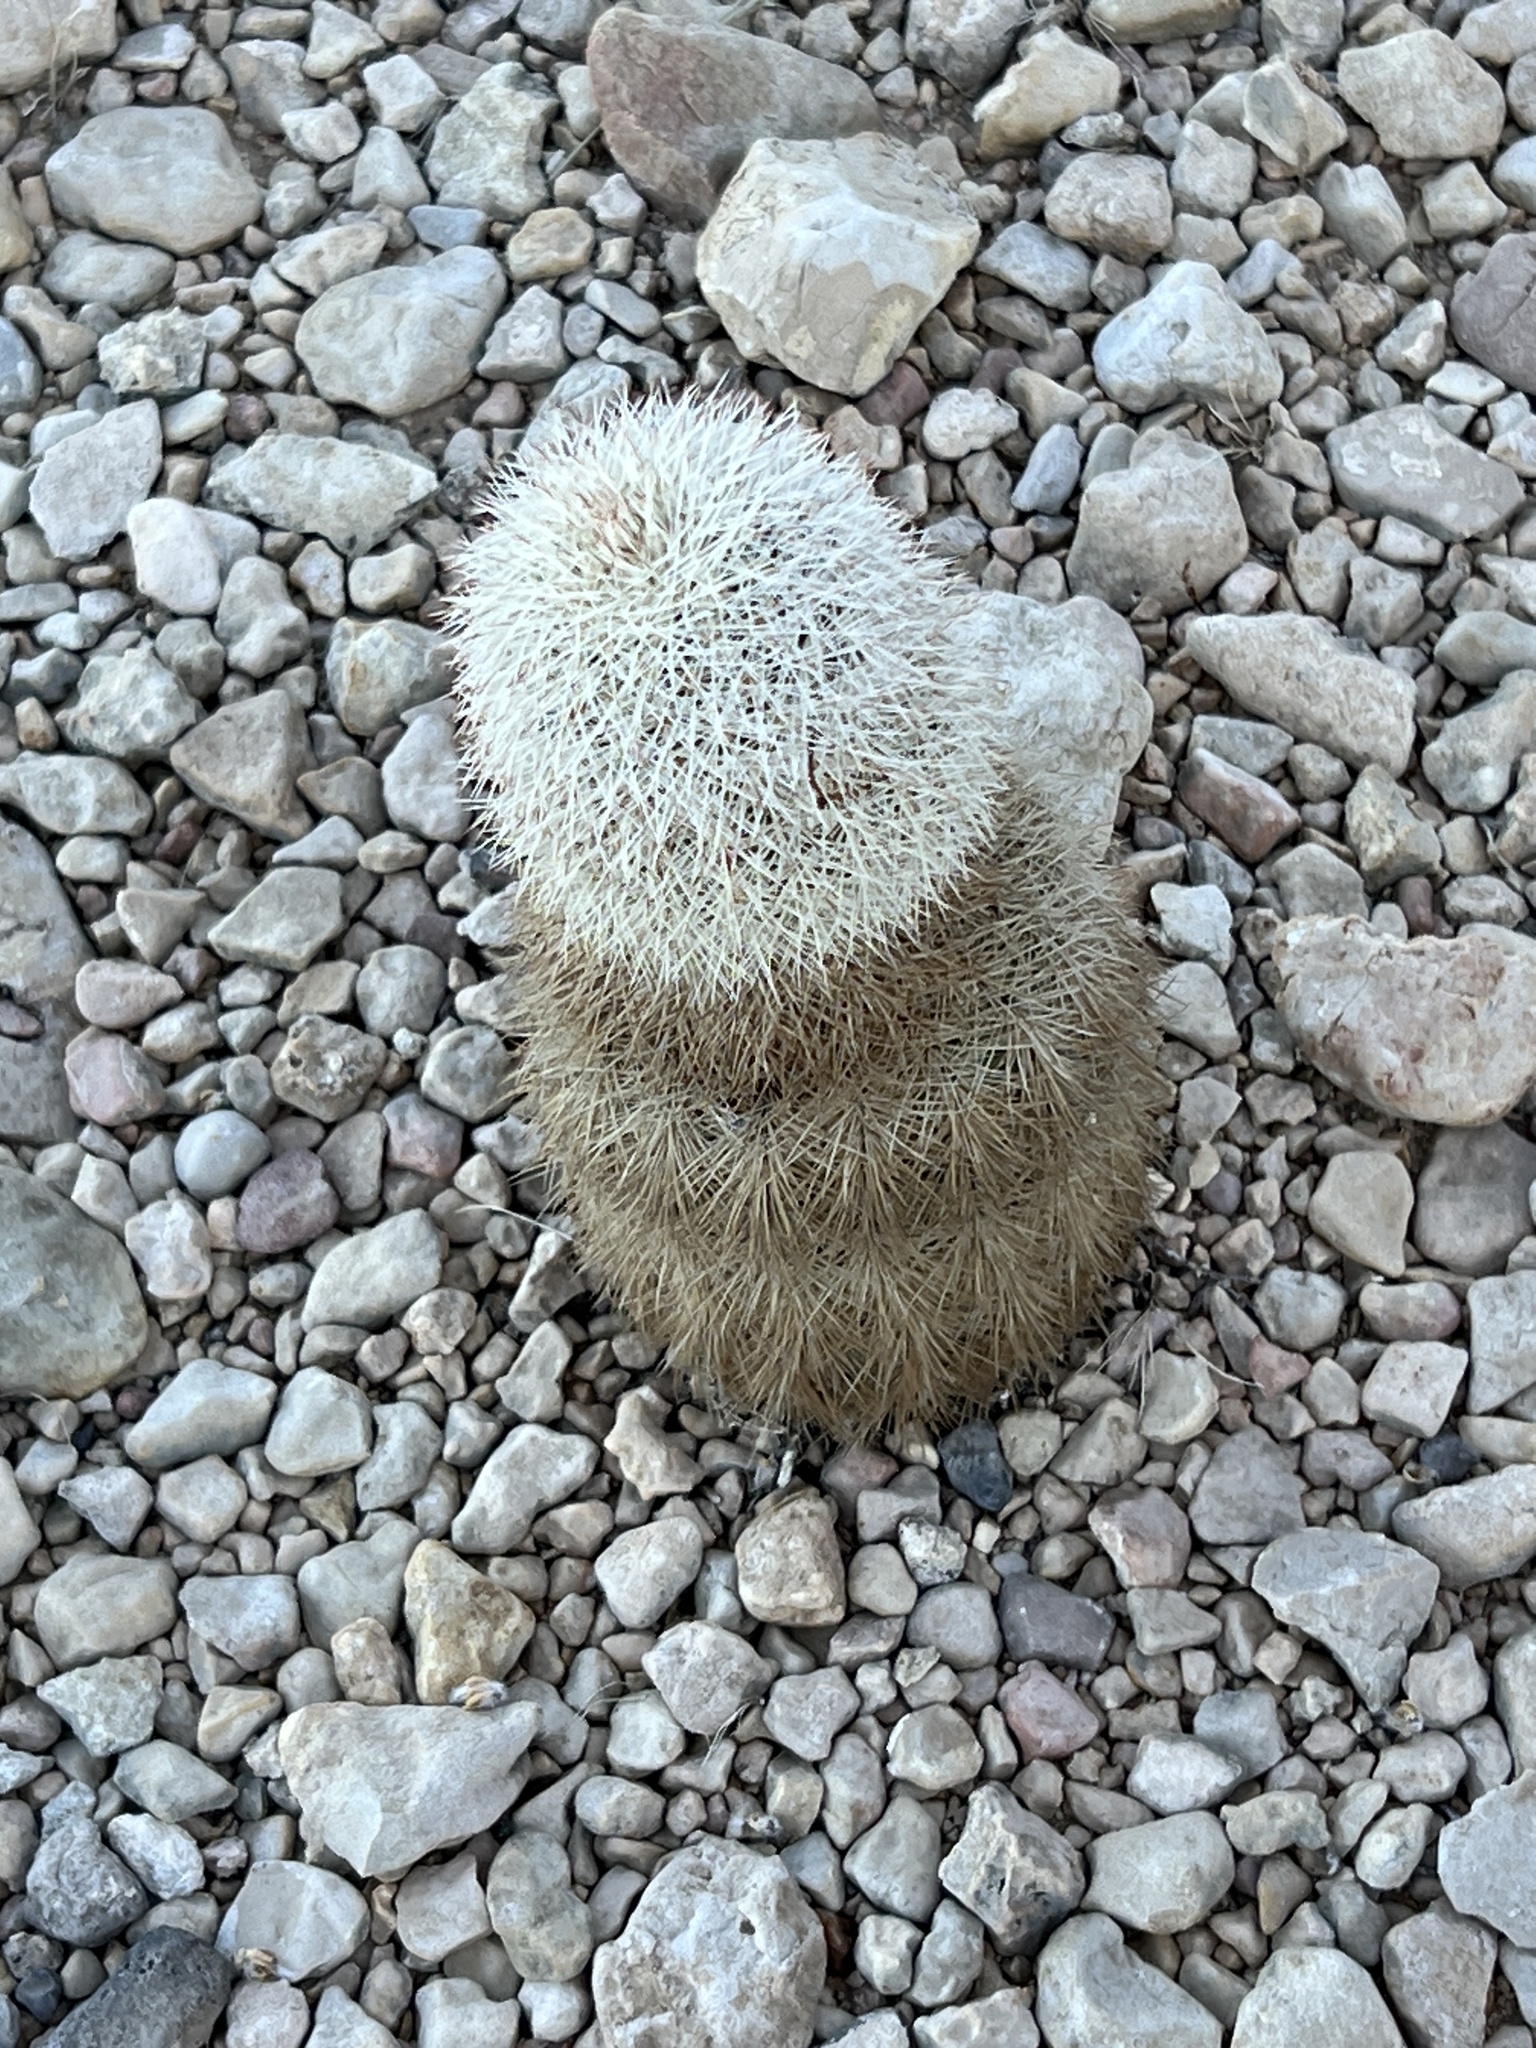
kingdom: Plantae
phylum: Tracheophyta
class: Magnoliopsida
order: Caryophyllales
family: Cactaceae
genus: Echinocereus
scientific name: Echinocereus dasyacanthus
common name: Spiny hedgehog cactus
